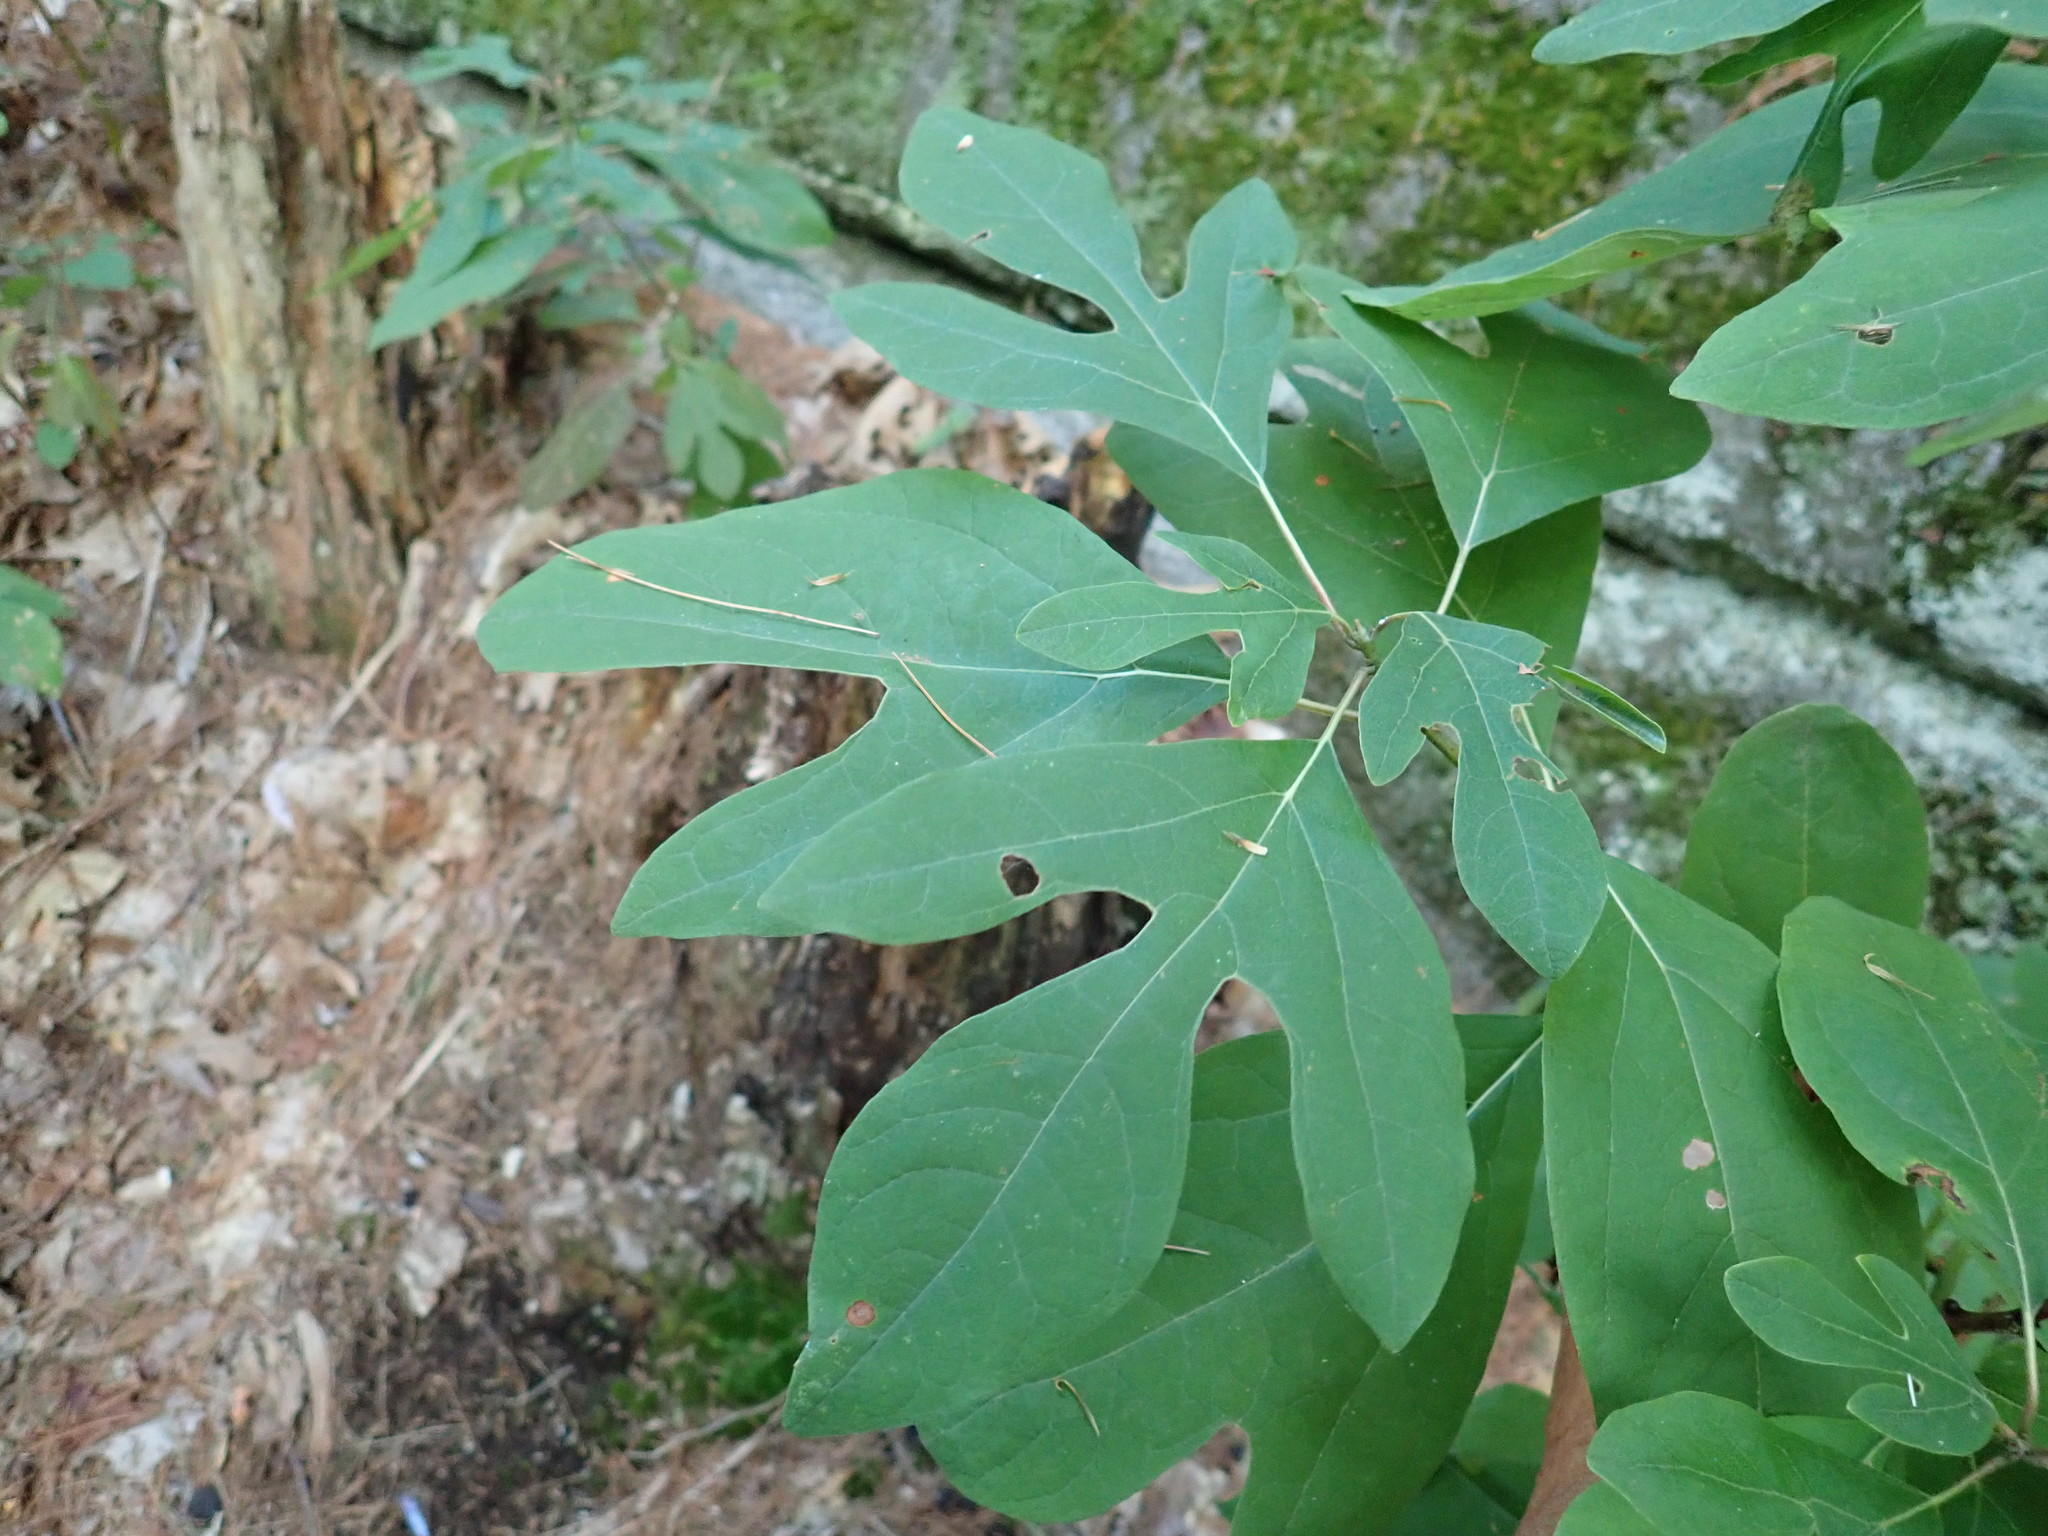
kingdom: Plantae
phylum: Tracheophyta
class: Magnoliopsida
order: Laurales
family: Lauraceae
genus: Sassafras
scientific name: Sassafras albidum
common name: Sassafras
